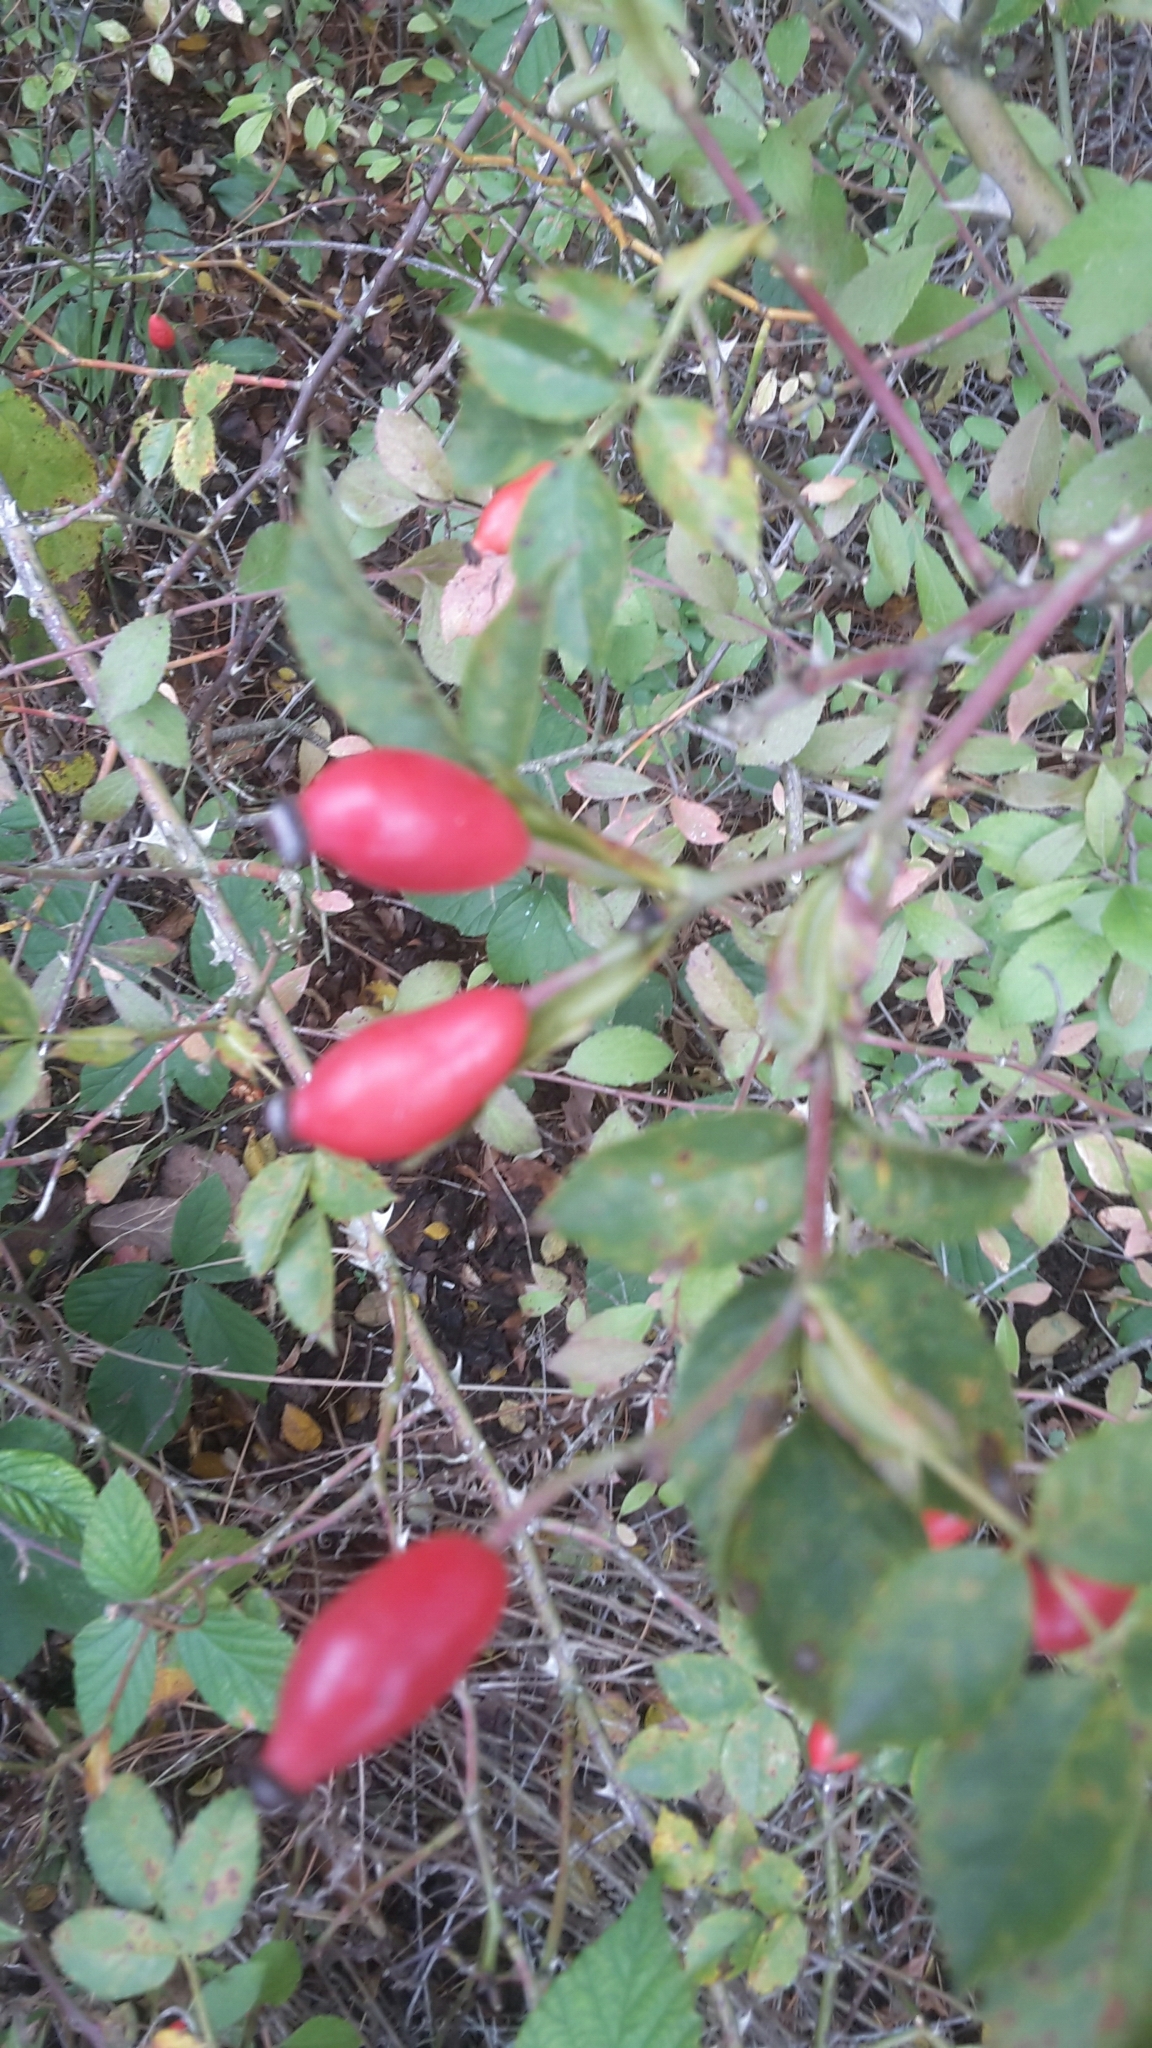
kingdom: Plantae
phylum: Tracheophyta
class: Magnoliopsida
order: Rosales
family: Rosaceae
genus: Rosa
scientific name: Rosa canina
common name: Dog rose
